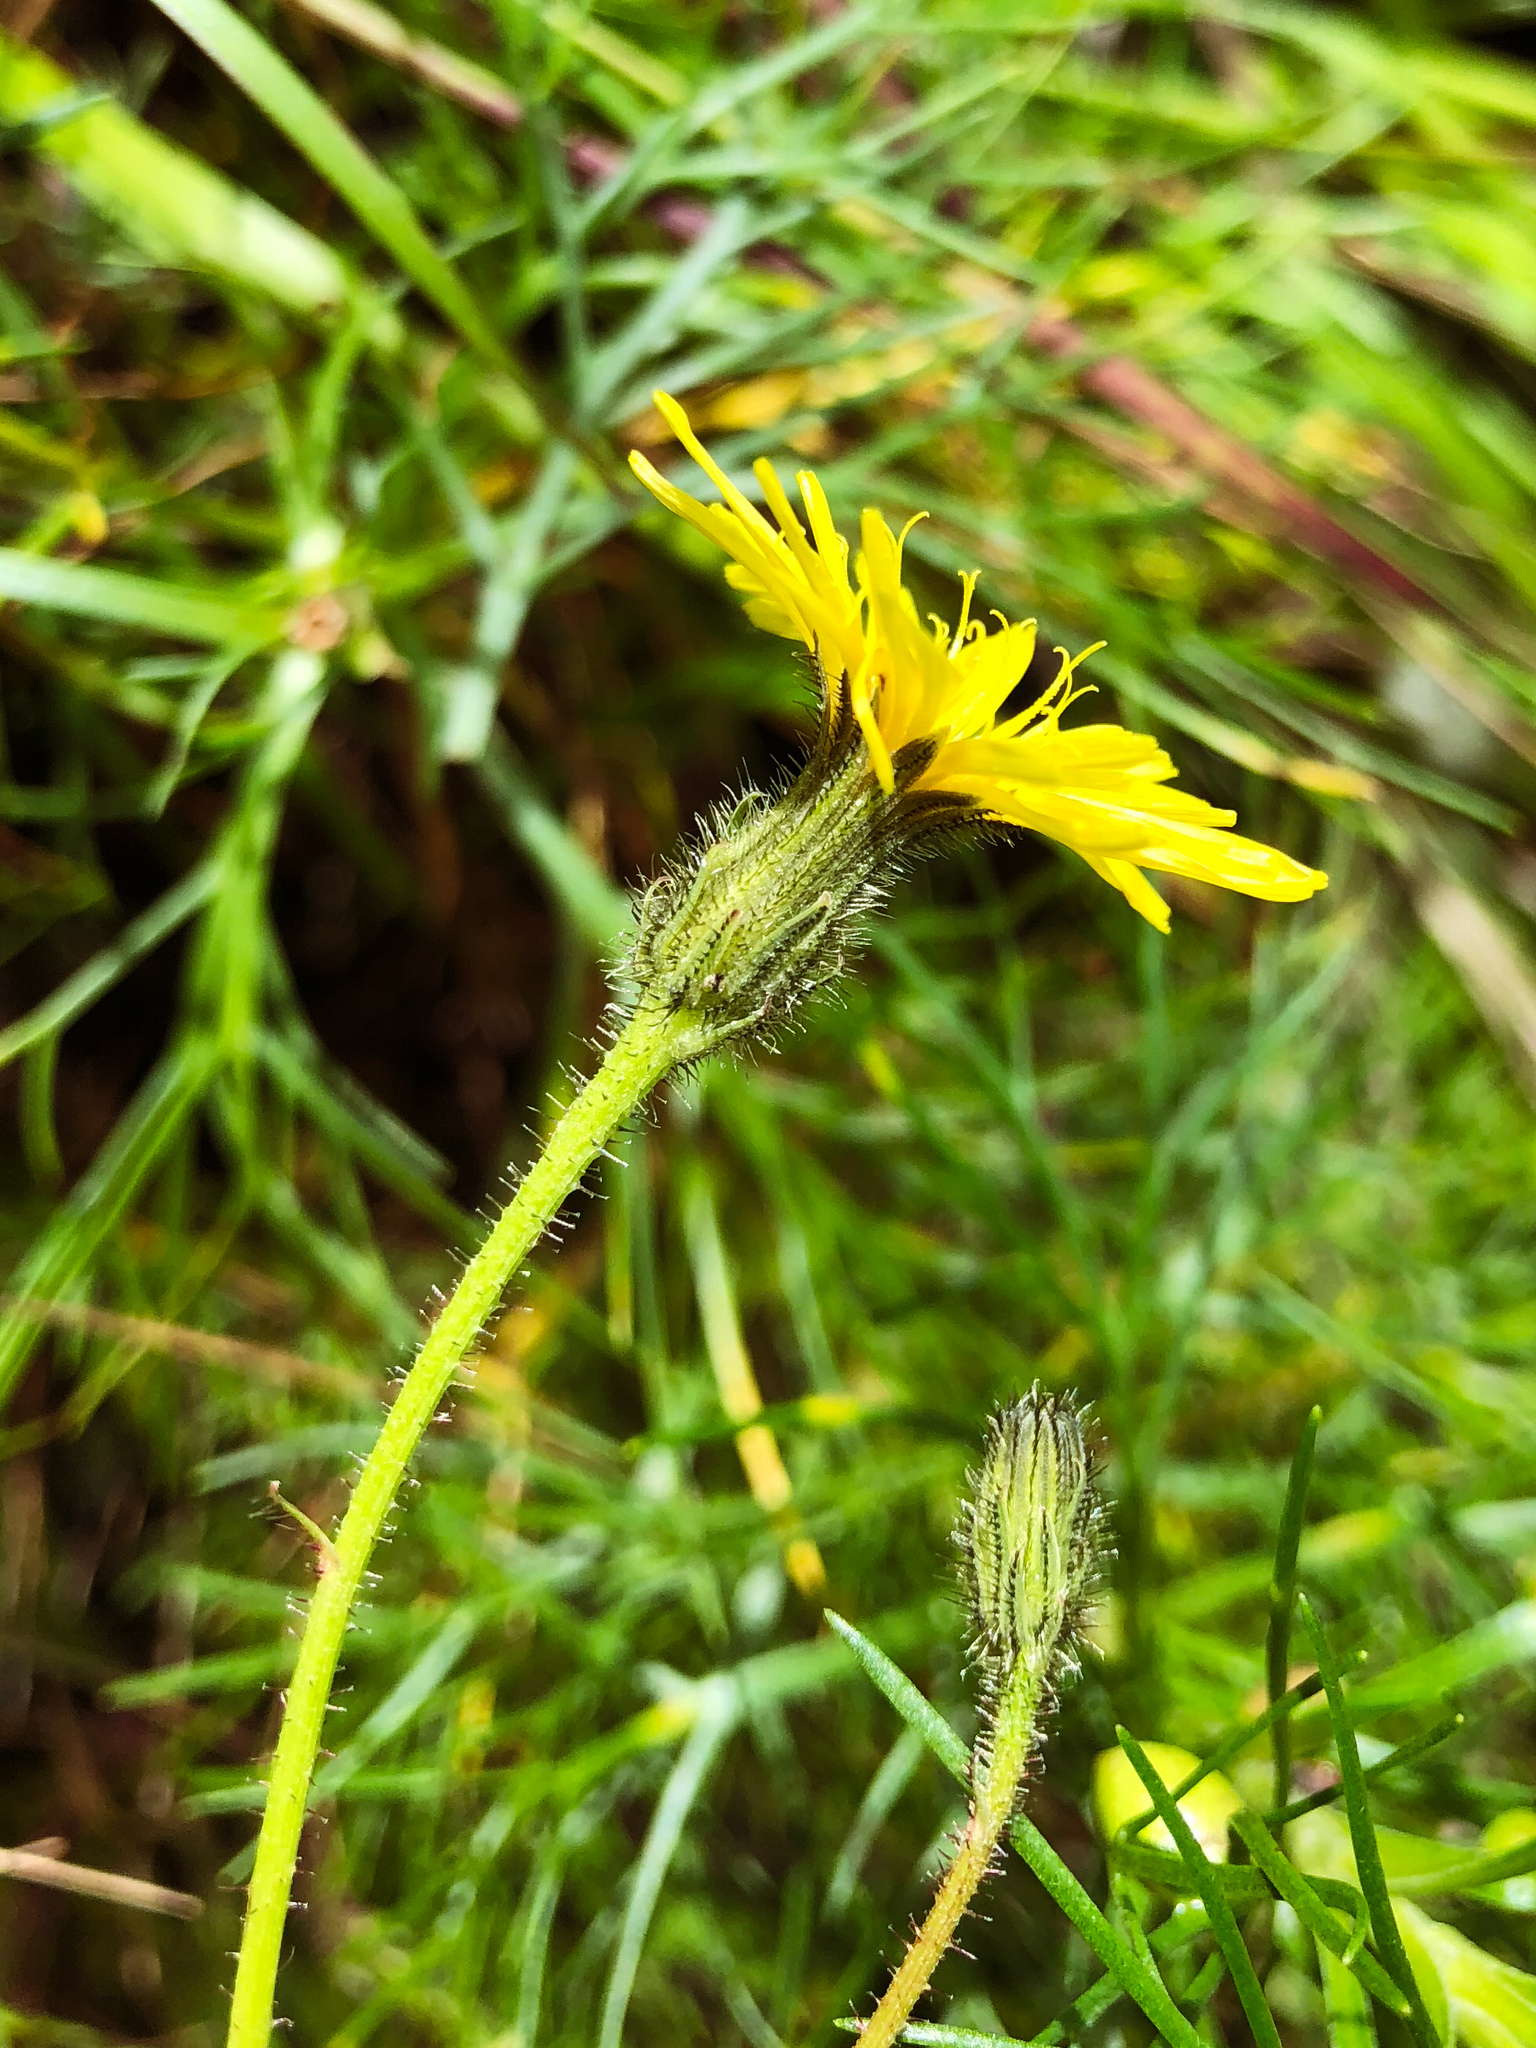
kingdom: Plantae
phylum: Tracheophyta
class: Magnoliopsida
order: Asterales
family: Asteraceae
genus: Picris
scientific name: Picris angustifolia
